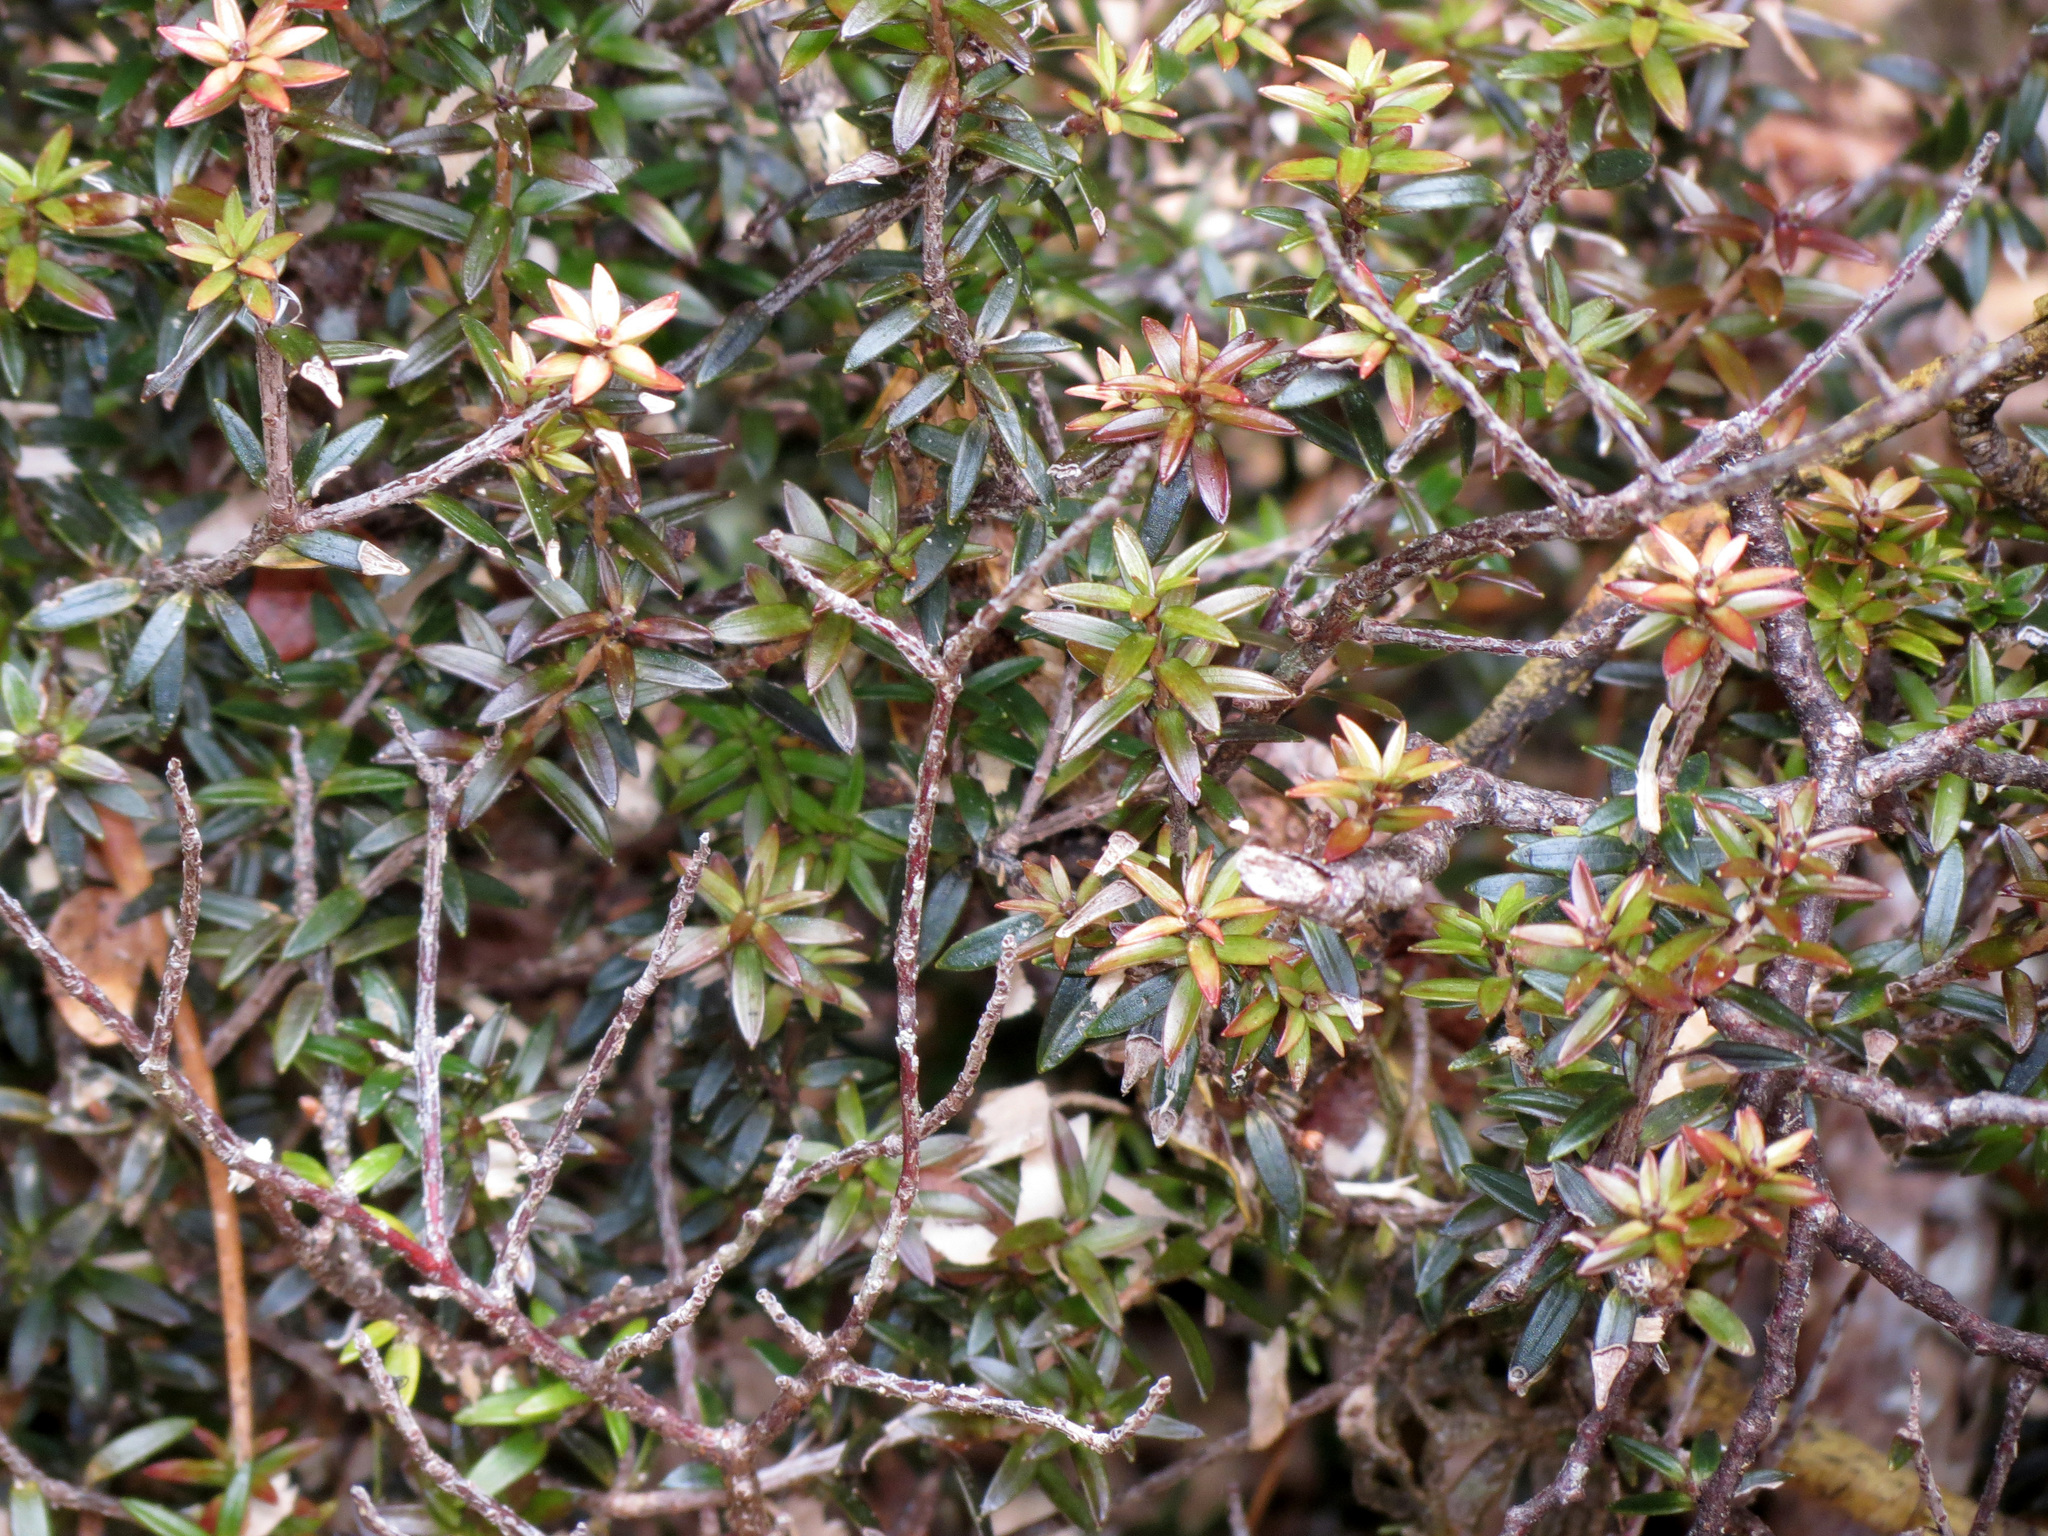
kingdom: Plantae
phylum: Tracheophyta
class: Magnoliopsida
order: Ericales
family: Ericaceae
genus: Archeria
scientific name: Archeria traversii
